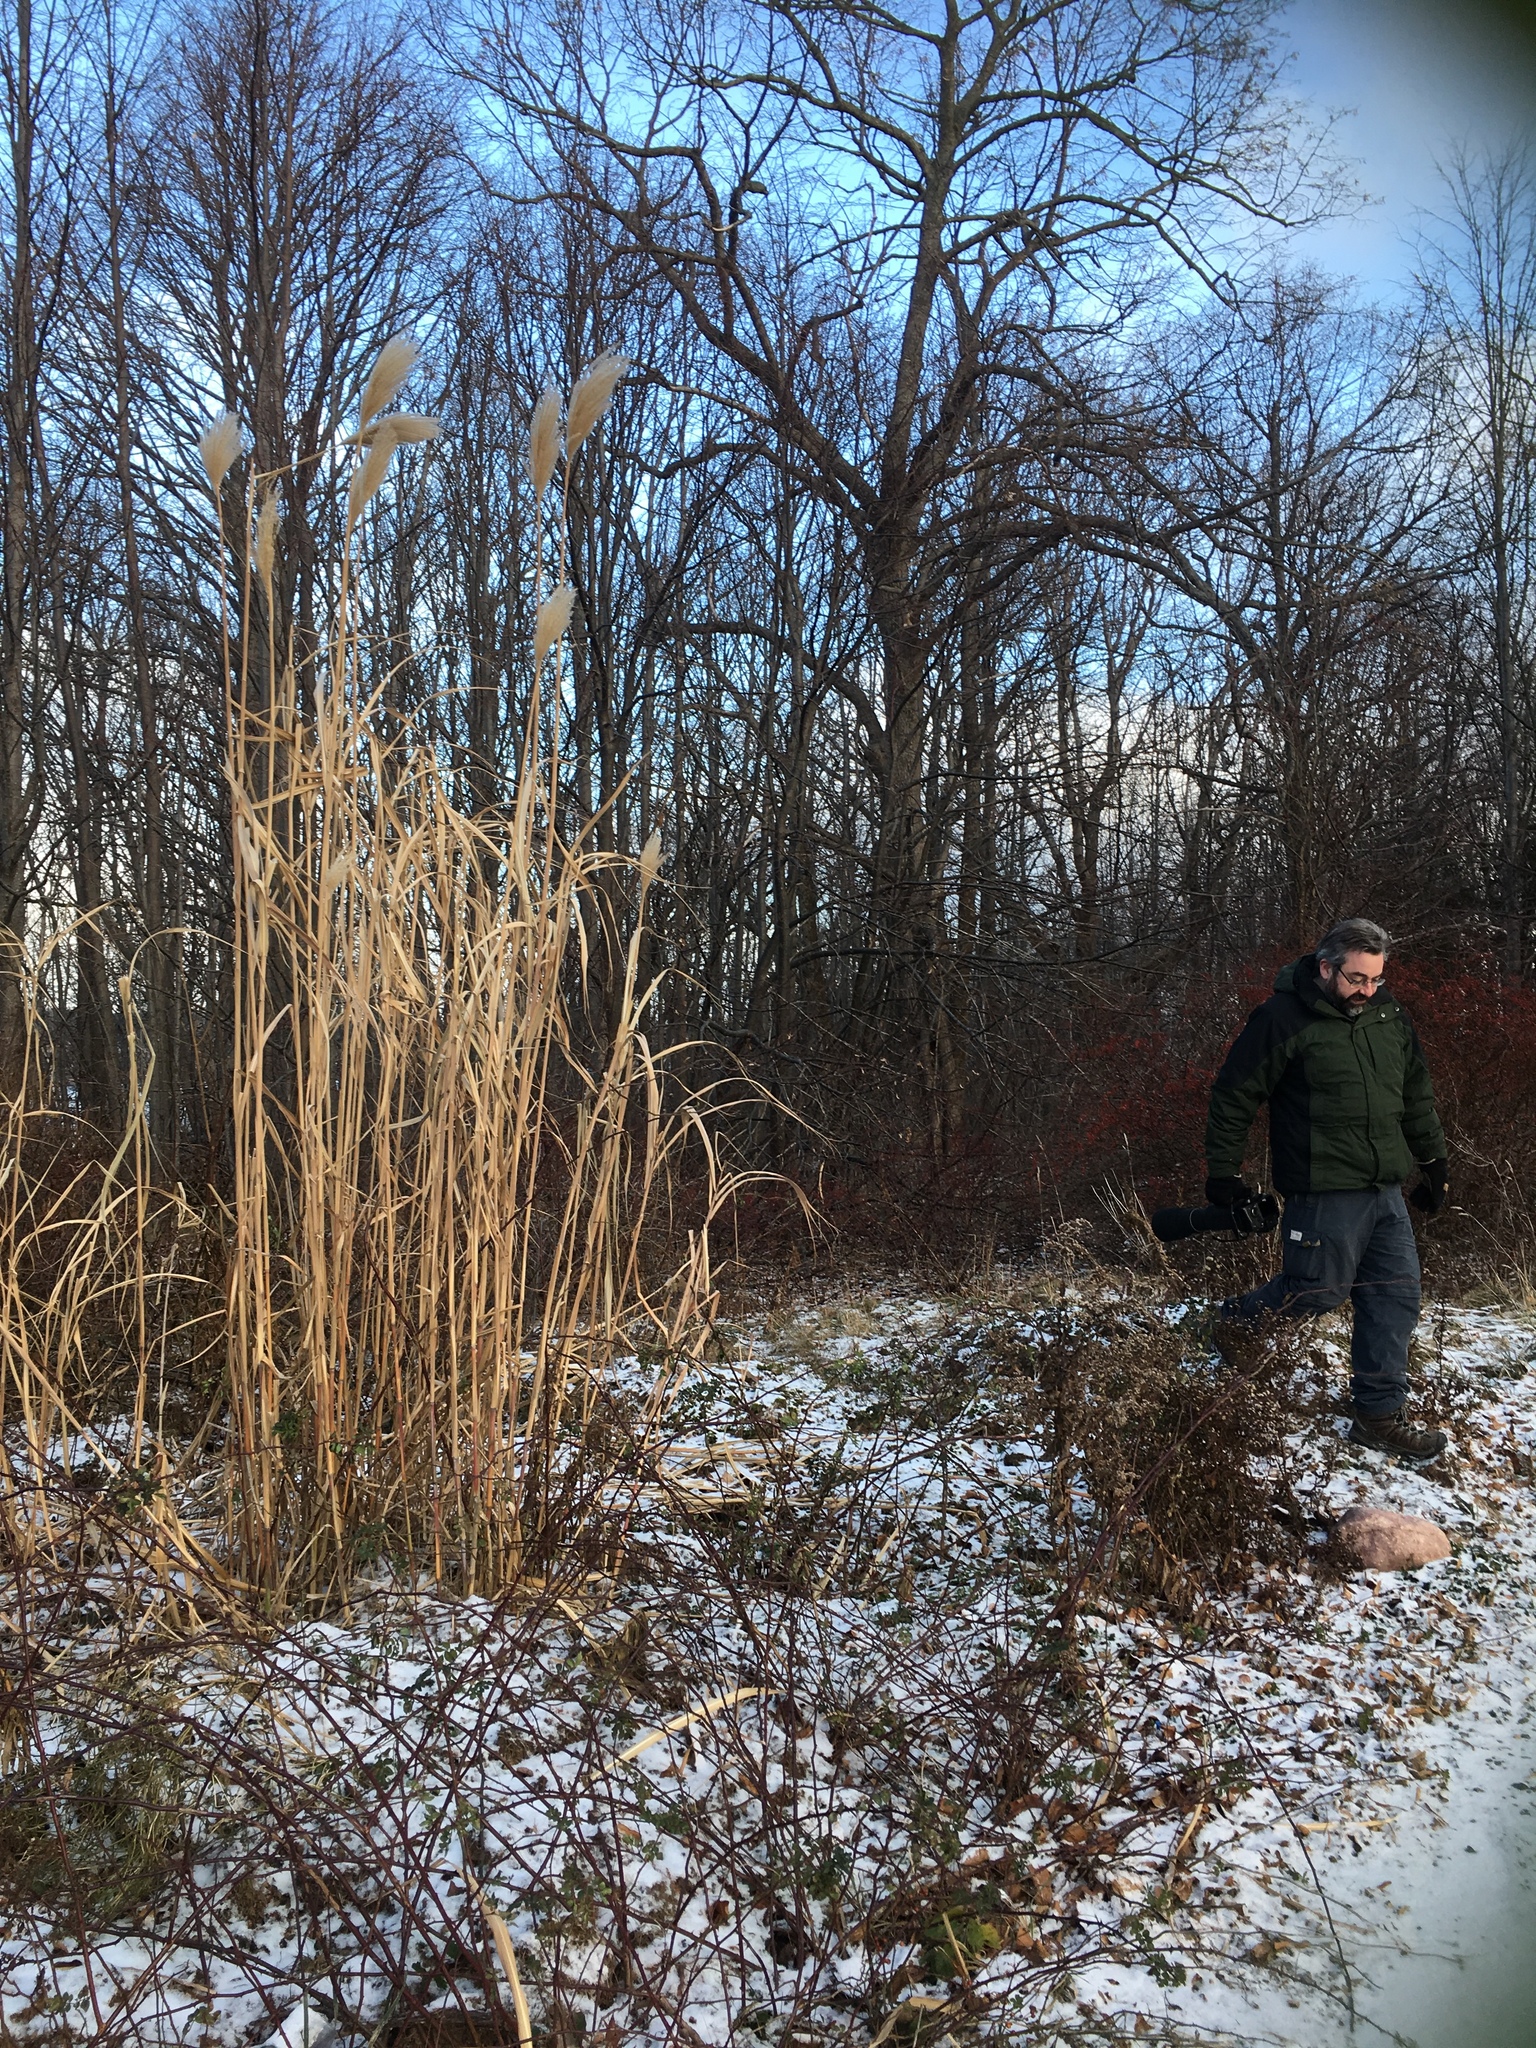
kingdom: Plantae
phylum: Tracheophyta
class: Liliopsida
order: Poales
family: Poaceae
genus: Miscanthus
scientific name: Miscanthus sinensis
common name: Chinese silvergrass
